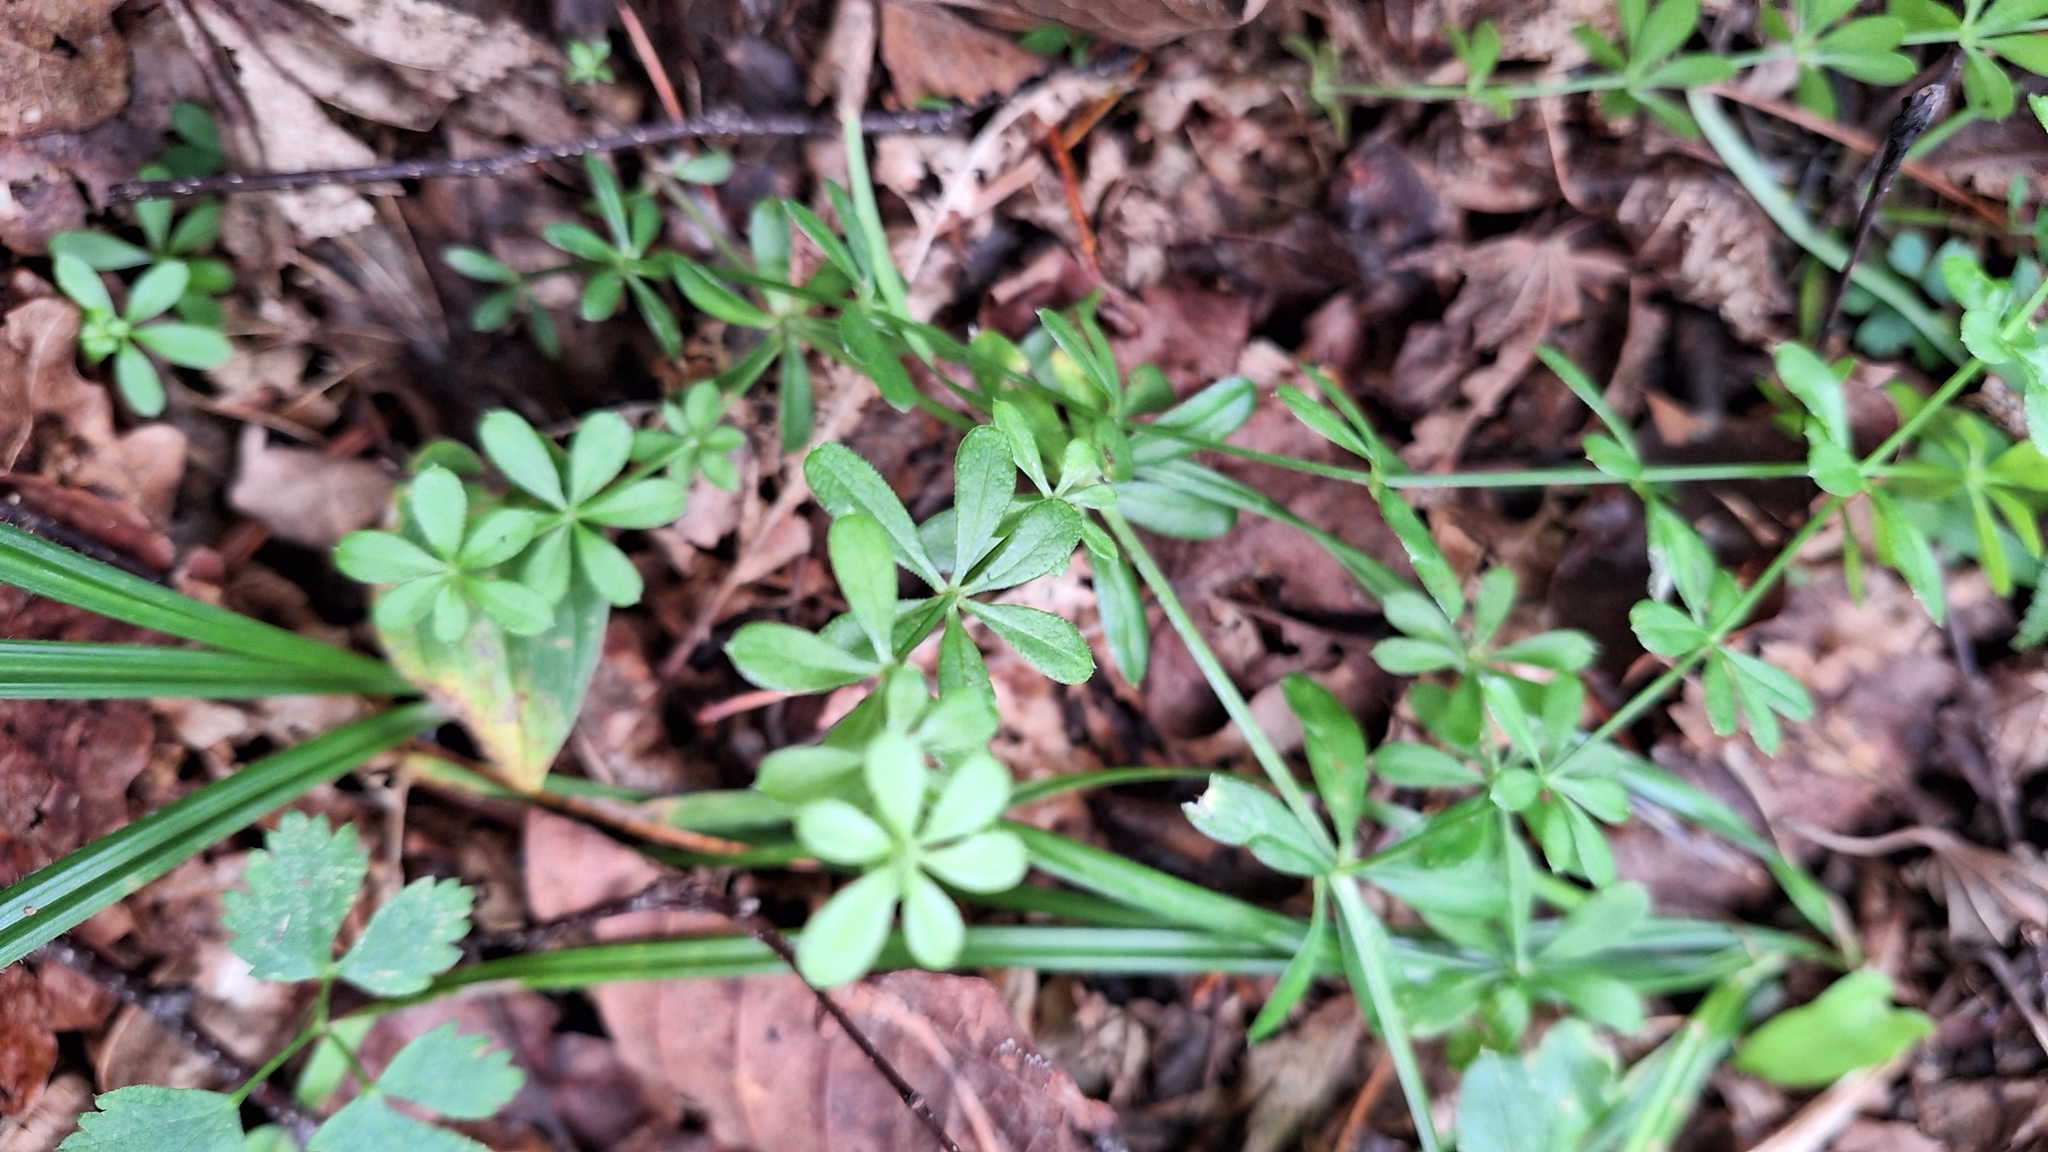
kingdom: Plantae
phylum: Tracheophyta
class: Magnoliopsida
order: Gentianales
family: Rubiaceae
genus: Galium
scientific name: Galium dahuricum
